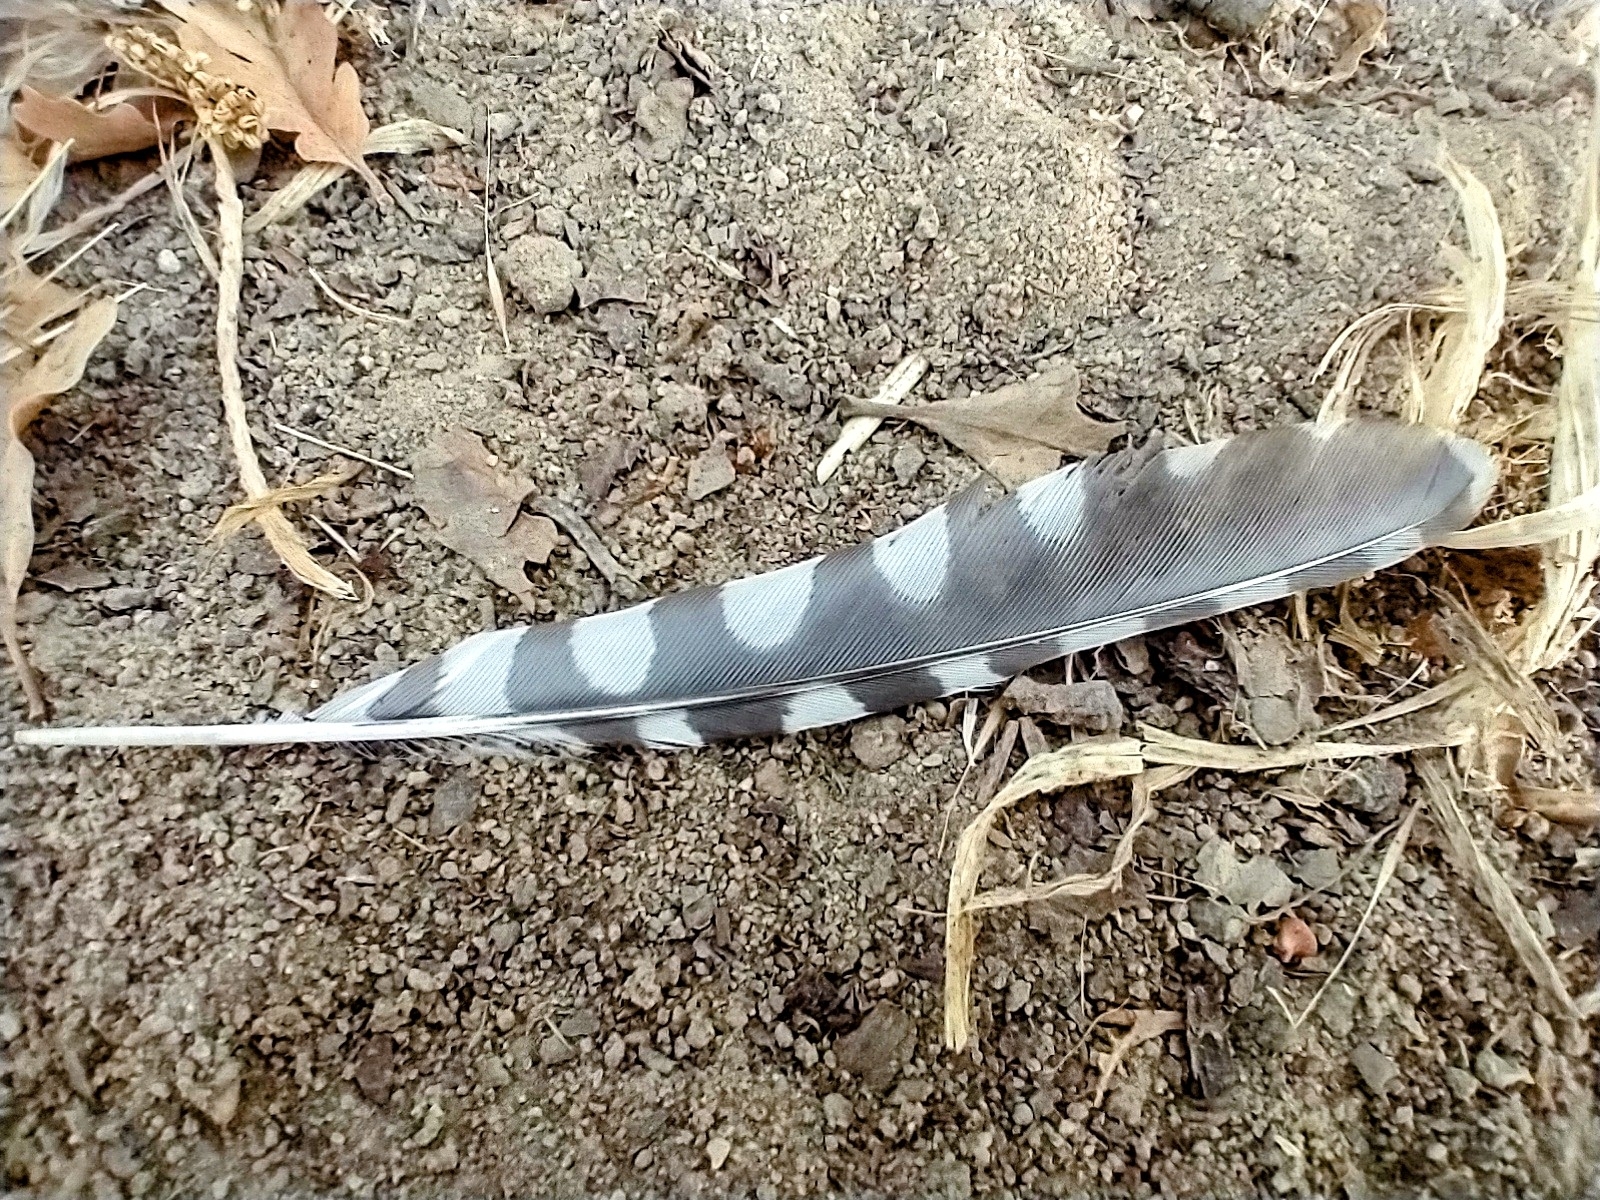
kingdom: Animalia
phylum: Chordata
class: Aves
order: Piciformes
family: Picidae
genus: Dryobates
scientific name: Dryobates nuttallii
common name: Nuttall's woodpecker
